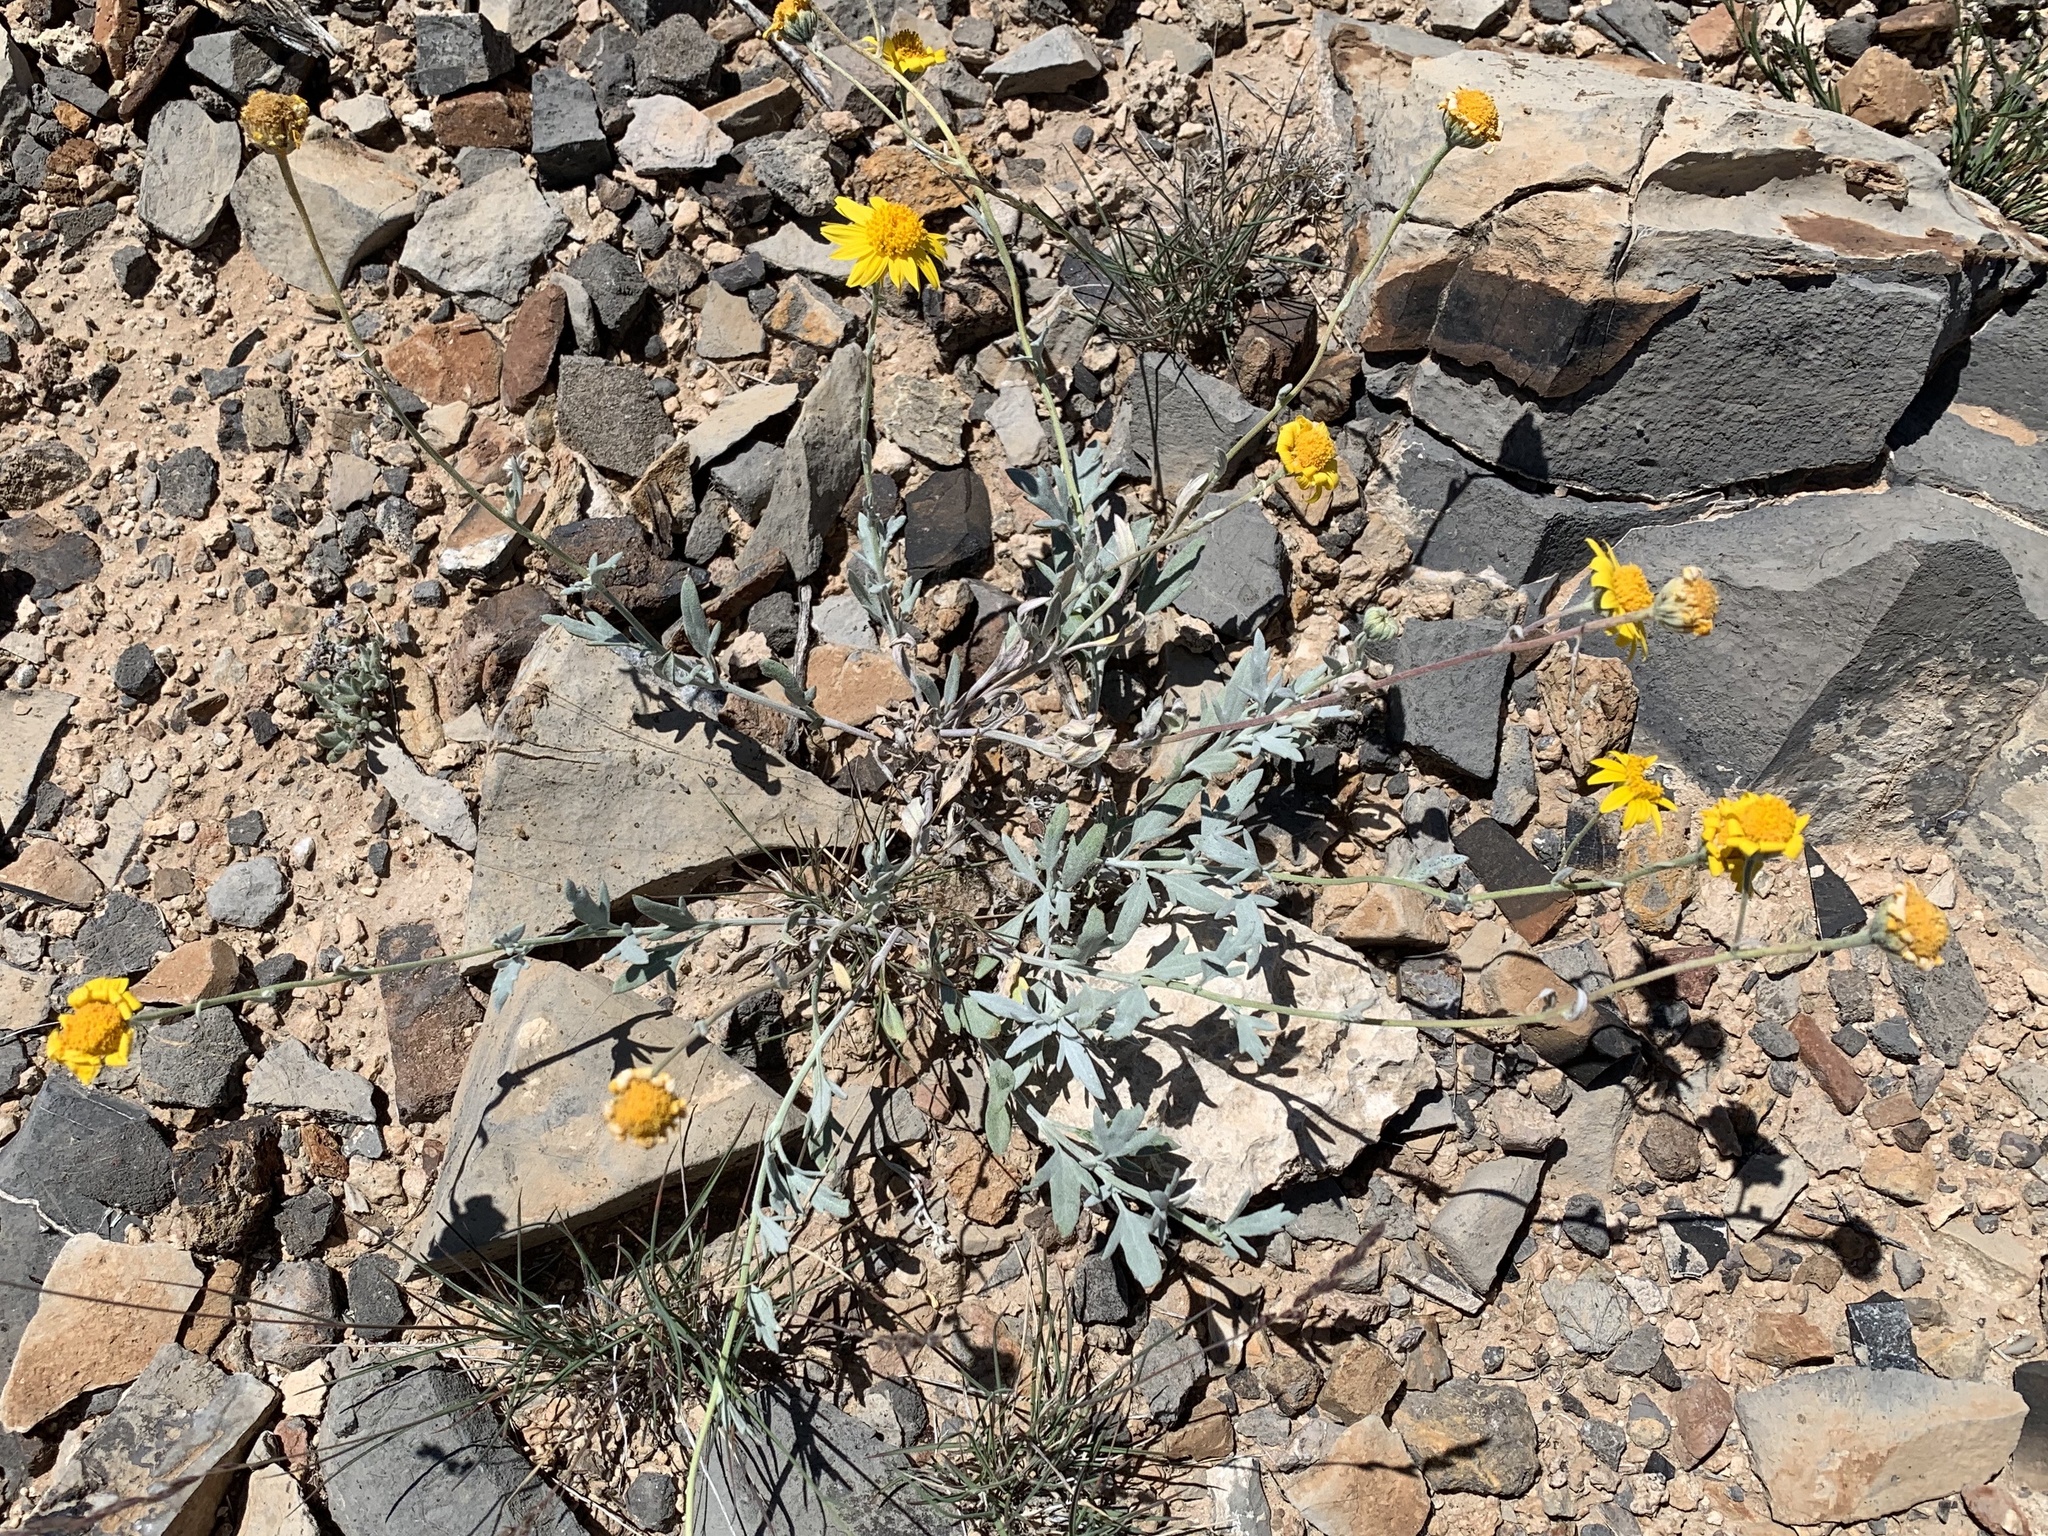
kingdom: Plantae
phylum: Tracheophyta
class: Magnoliopsida
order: Asterales
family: Asteraceae
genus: Picradeniopsis
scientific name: Picradeniopsis absinthifolia
